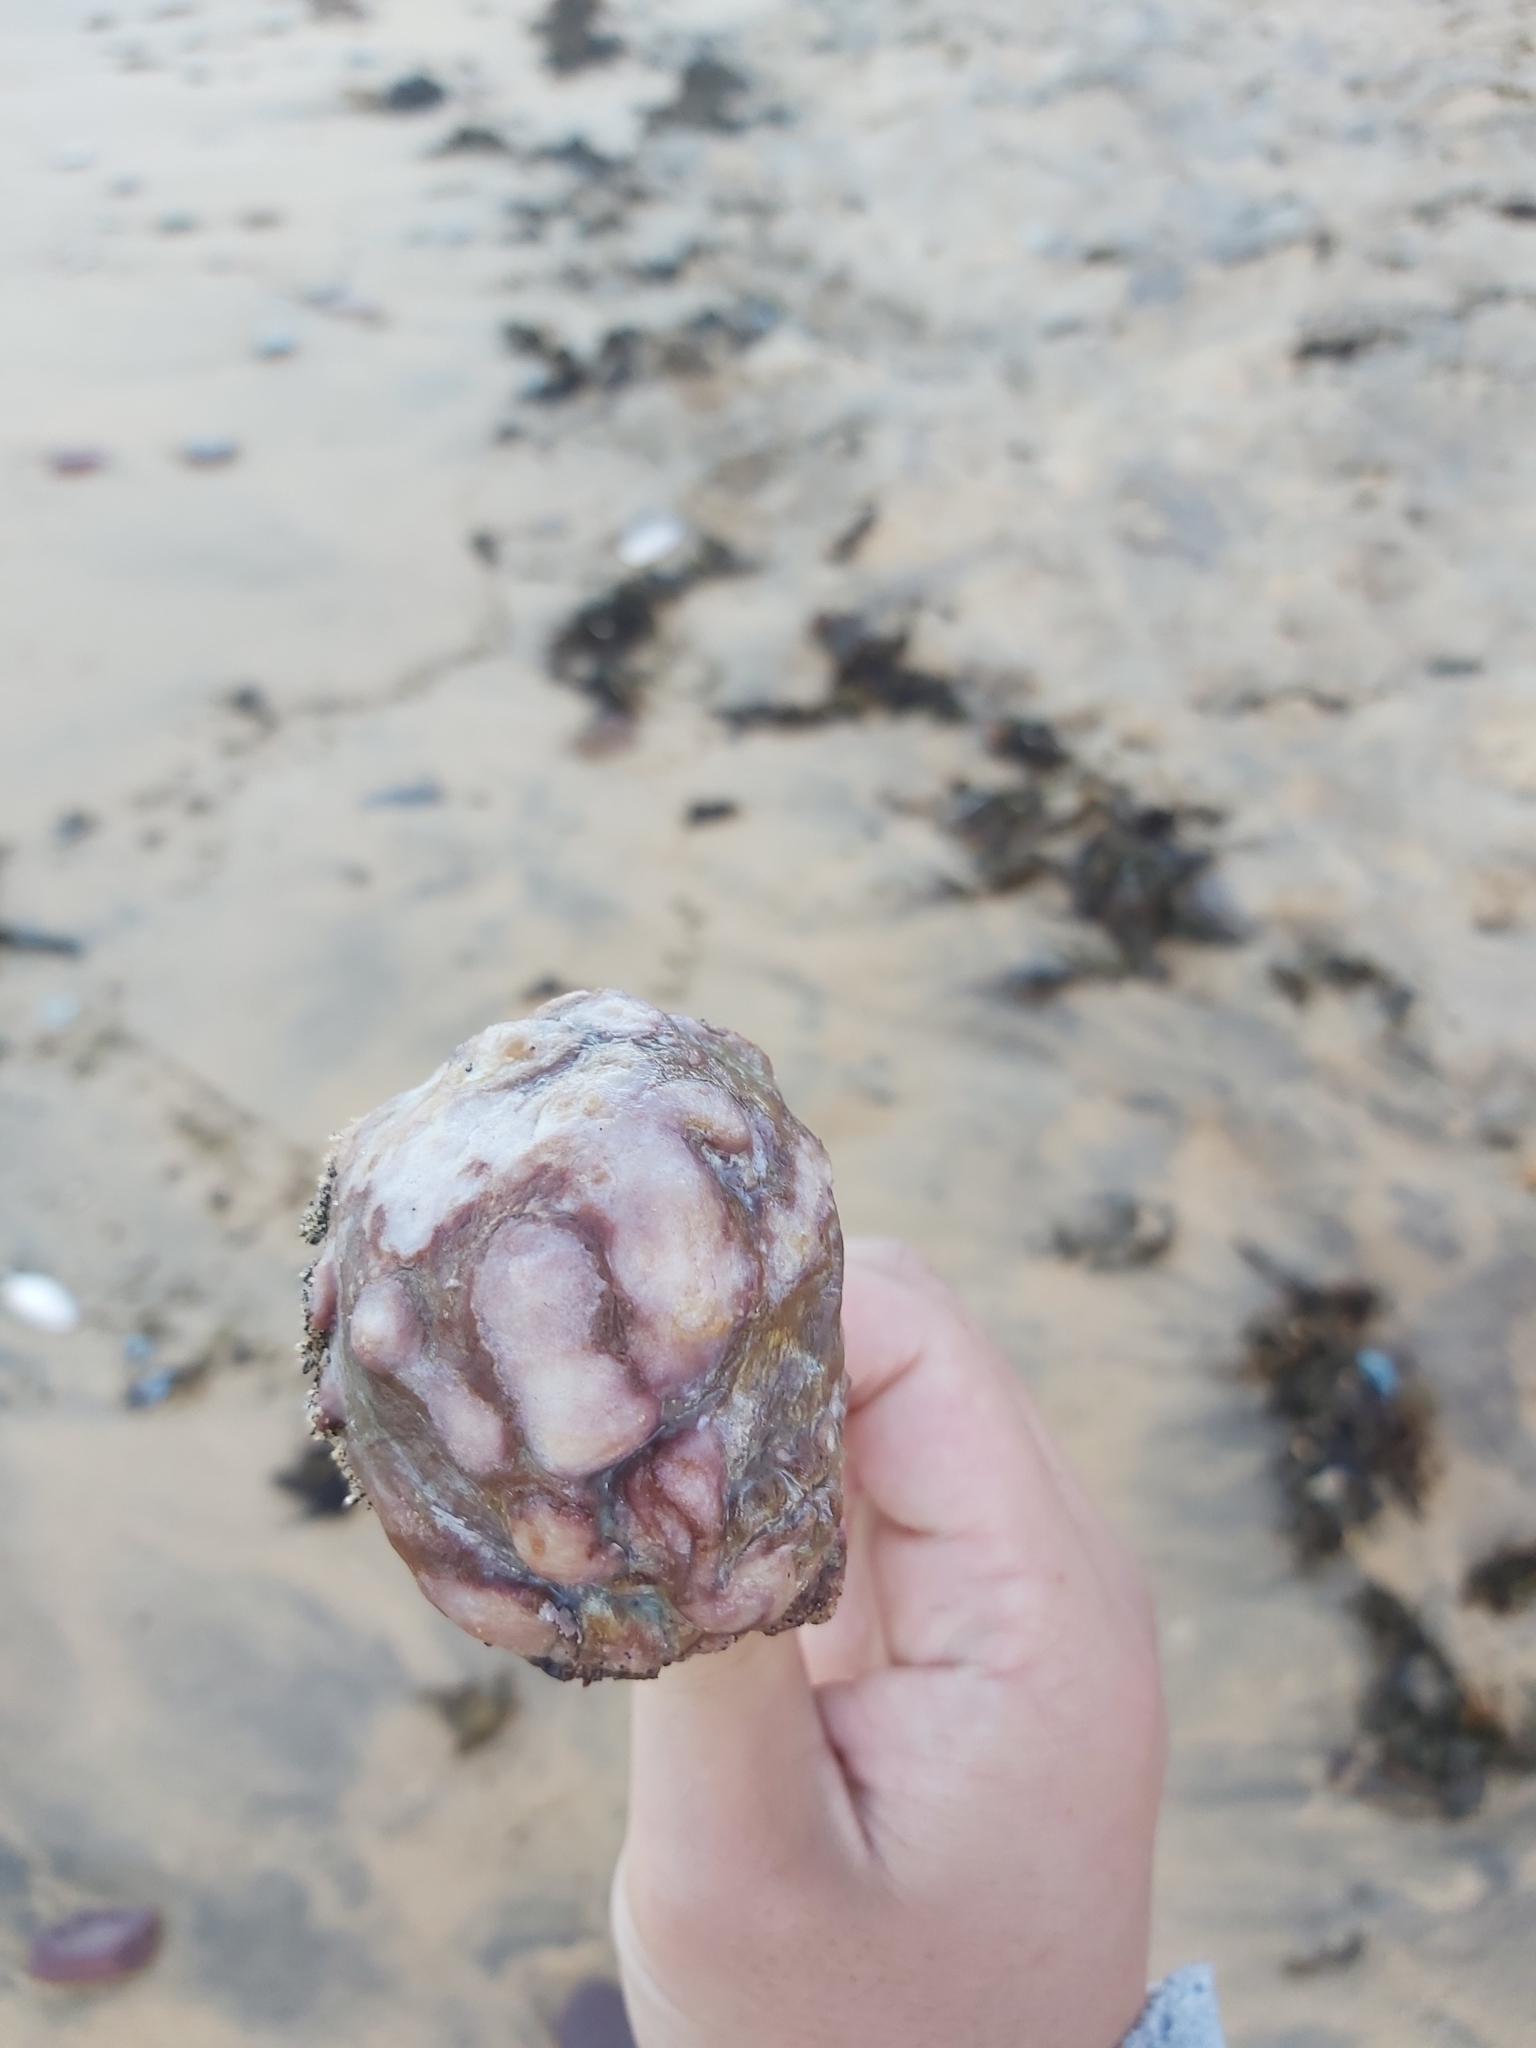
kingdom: Animalia
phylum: Chordata
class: Ascidiacea
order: Stolidobranchia
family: Pyuridae
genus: Pyura
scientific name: Pyura spinifera
